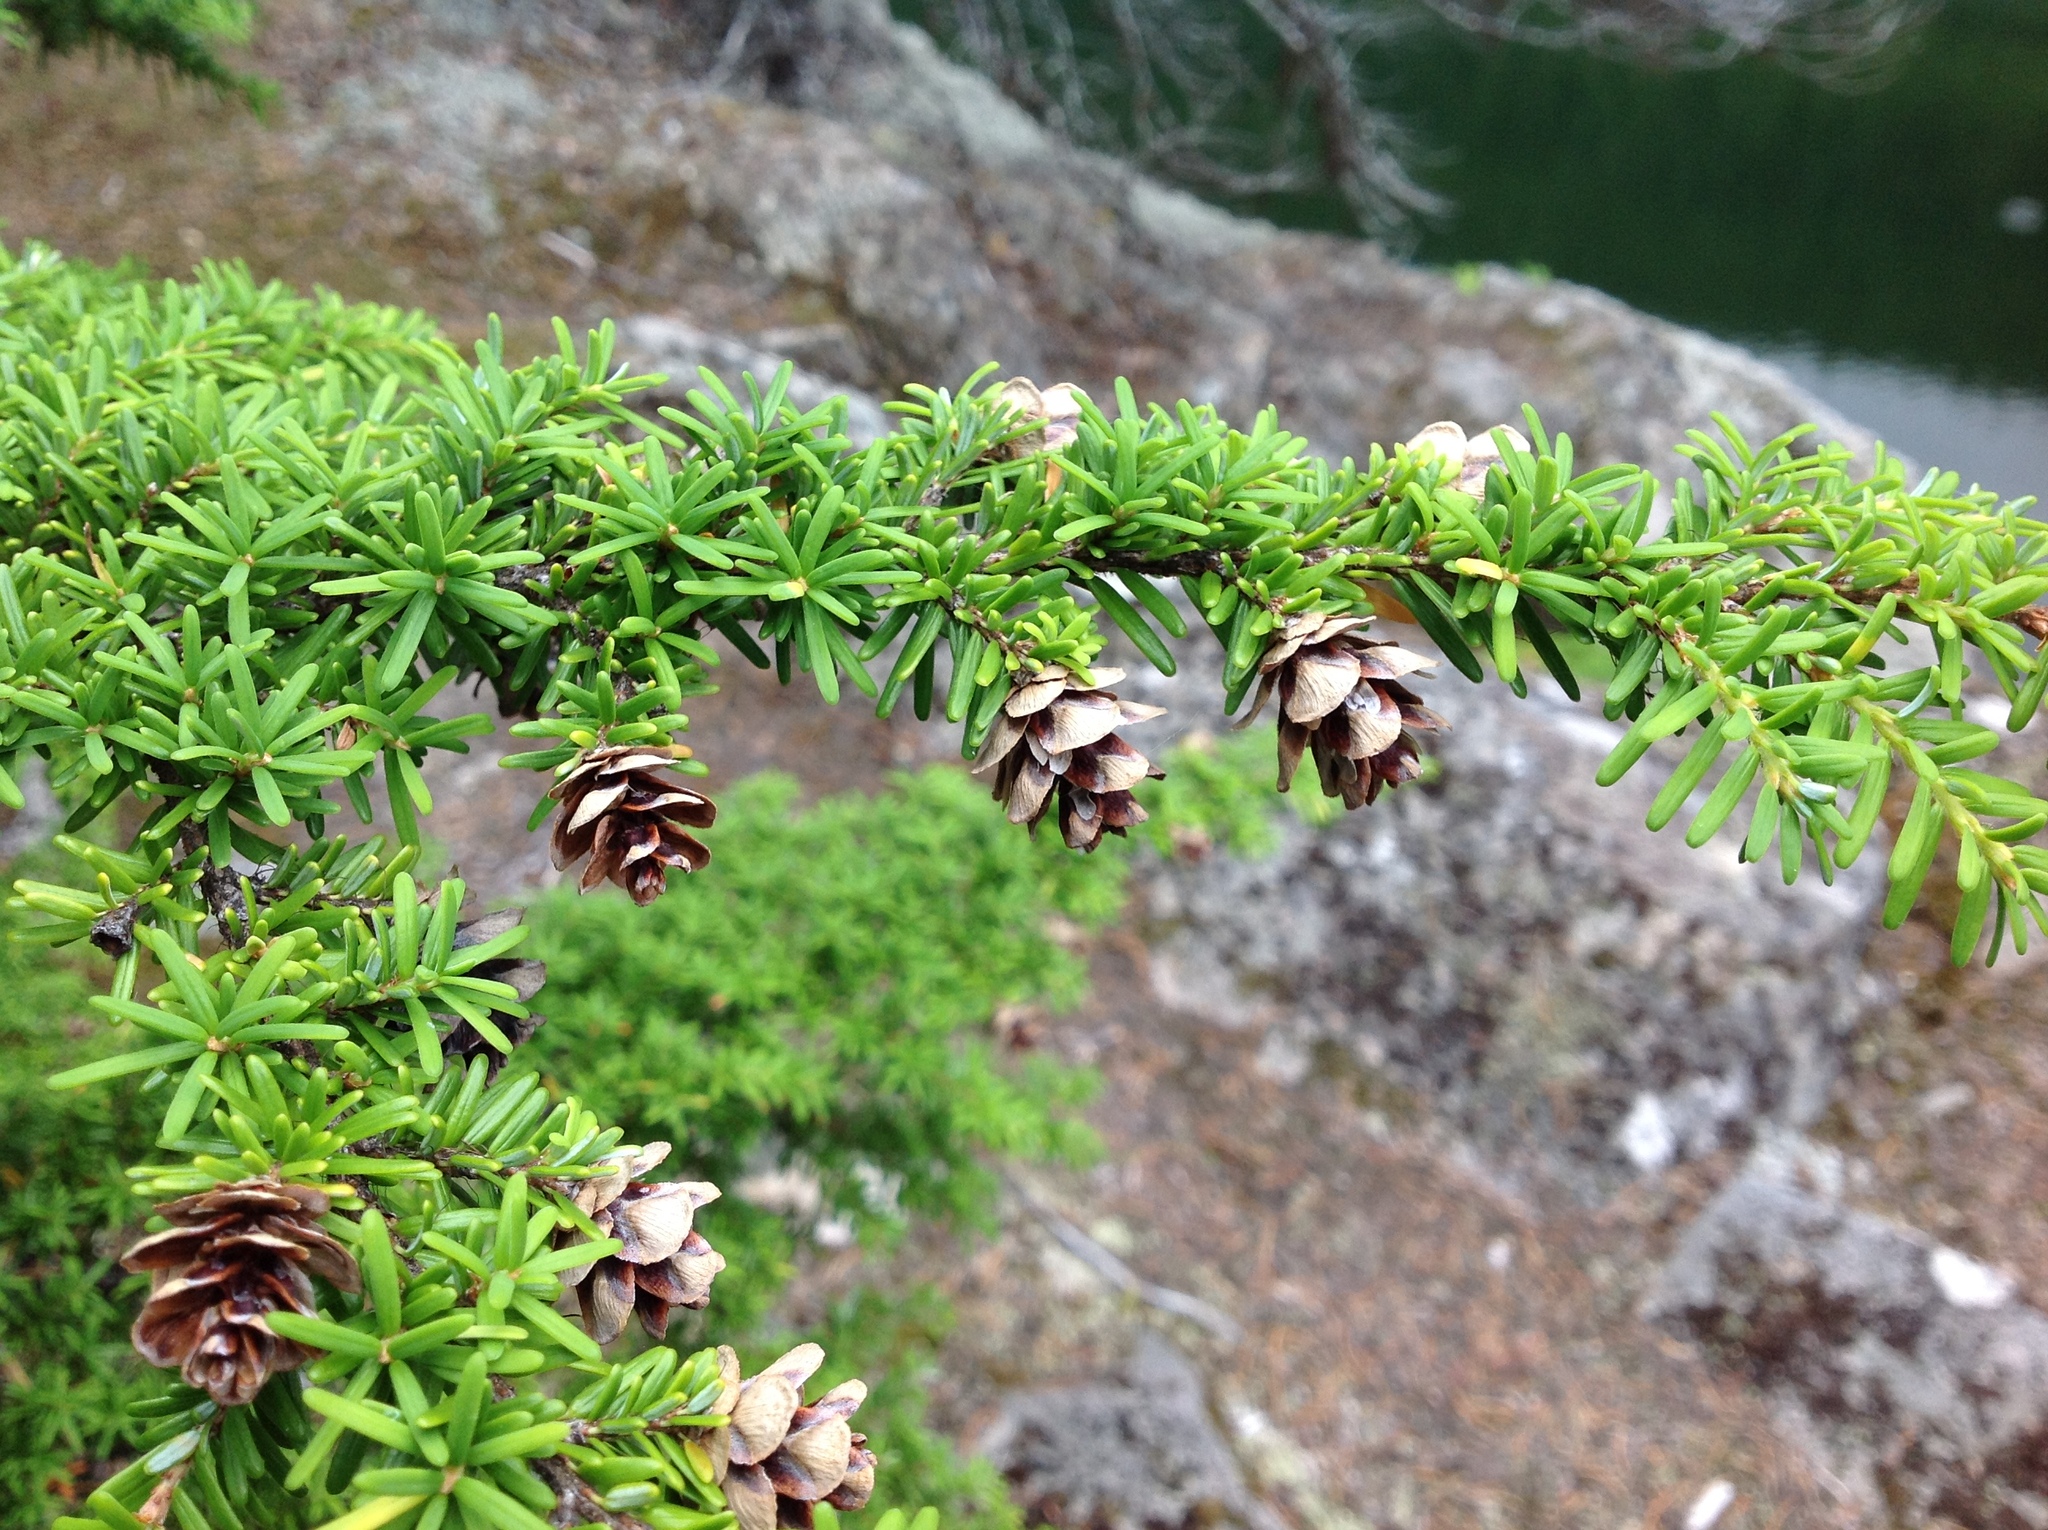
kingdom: Plantae
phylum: Tracheophyta
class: Pinopsida
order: Pinales
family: Pinaceae
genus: Tsuga
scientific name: Tsuga heterophylla
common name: Western hemlock
